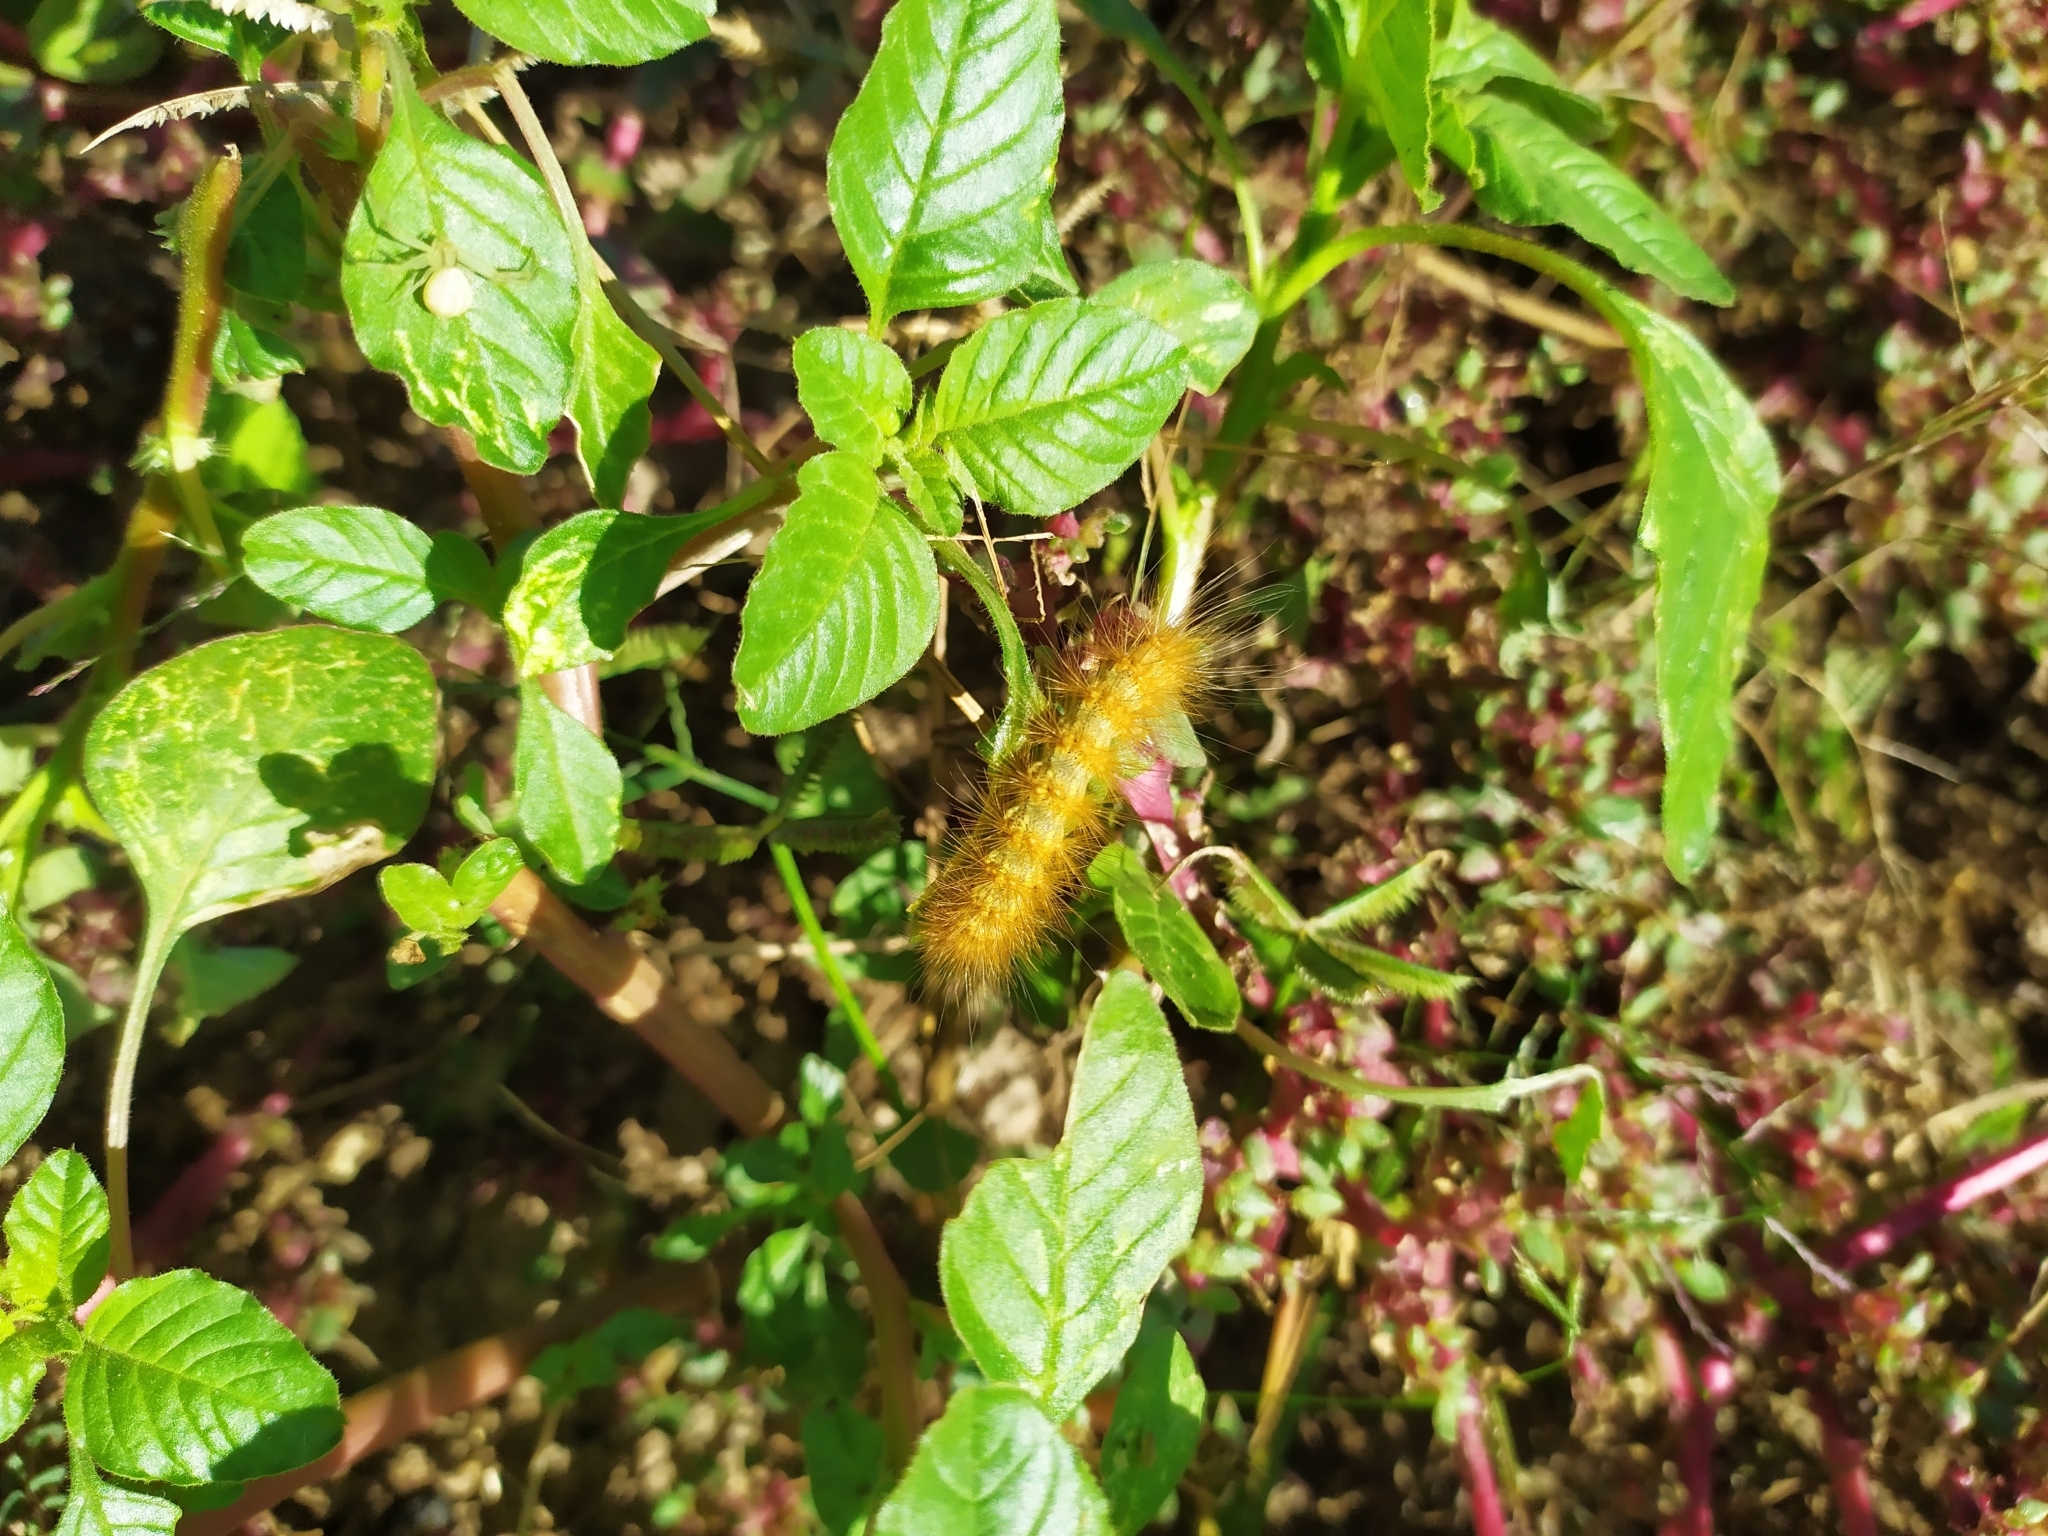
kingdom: Animalia
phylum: Arthropoda
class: Insecta
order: Lepidoptera
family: Erebidae
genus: Estigmene
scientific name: Estigmene acrea
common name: Salt marsh moth
